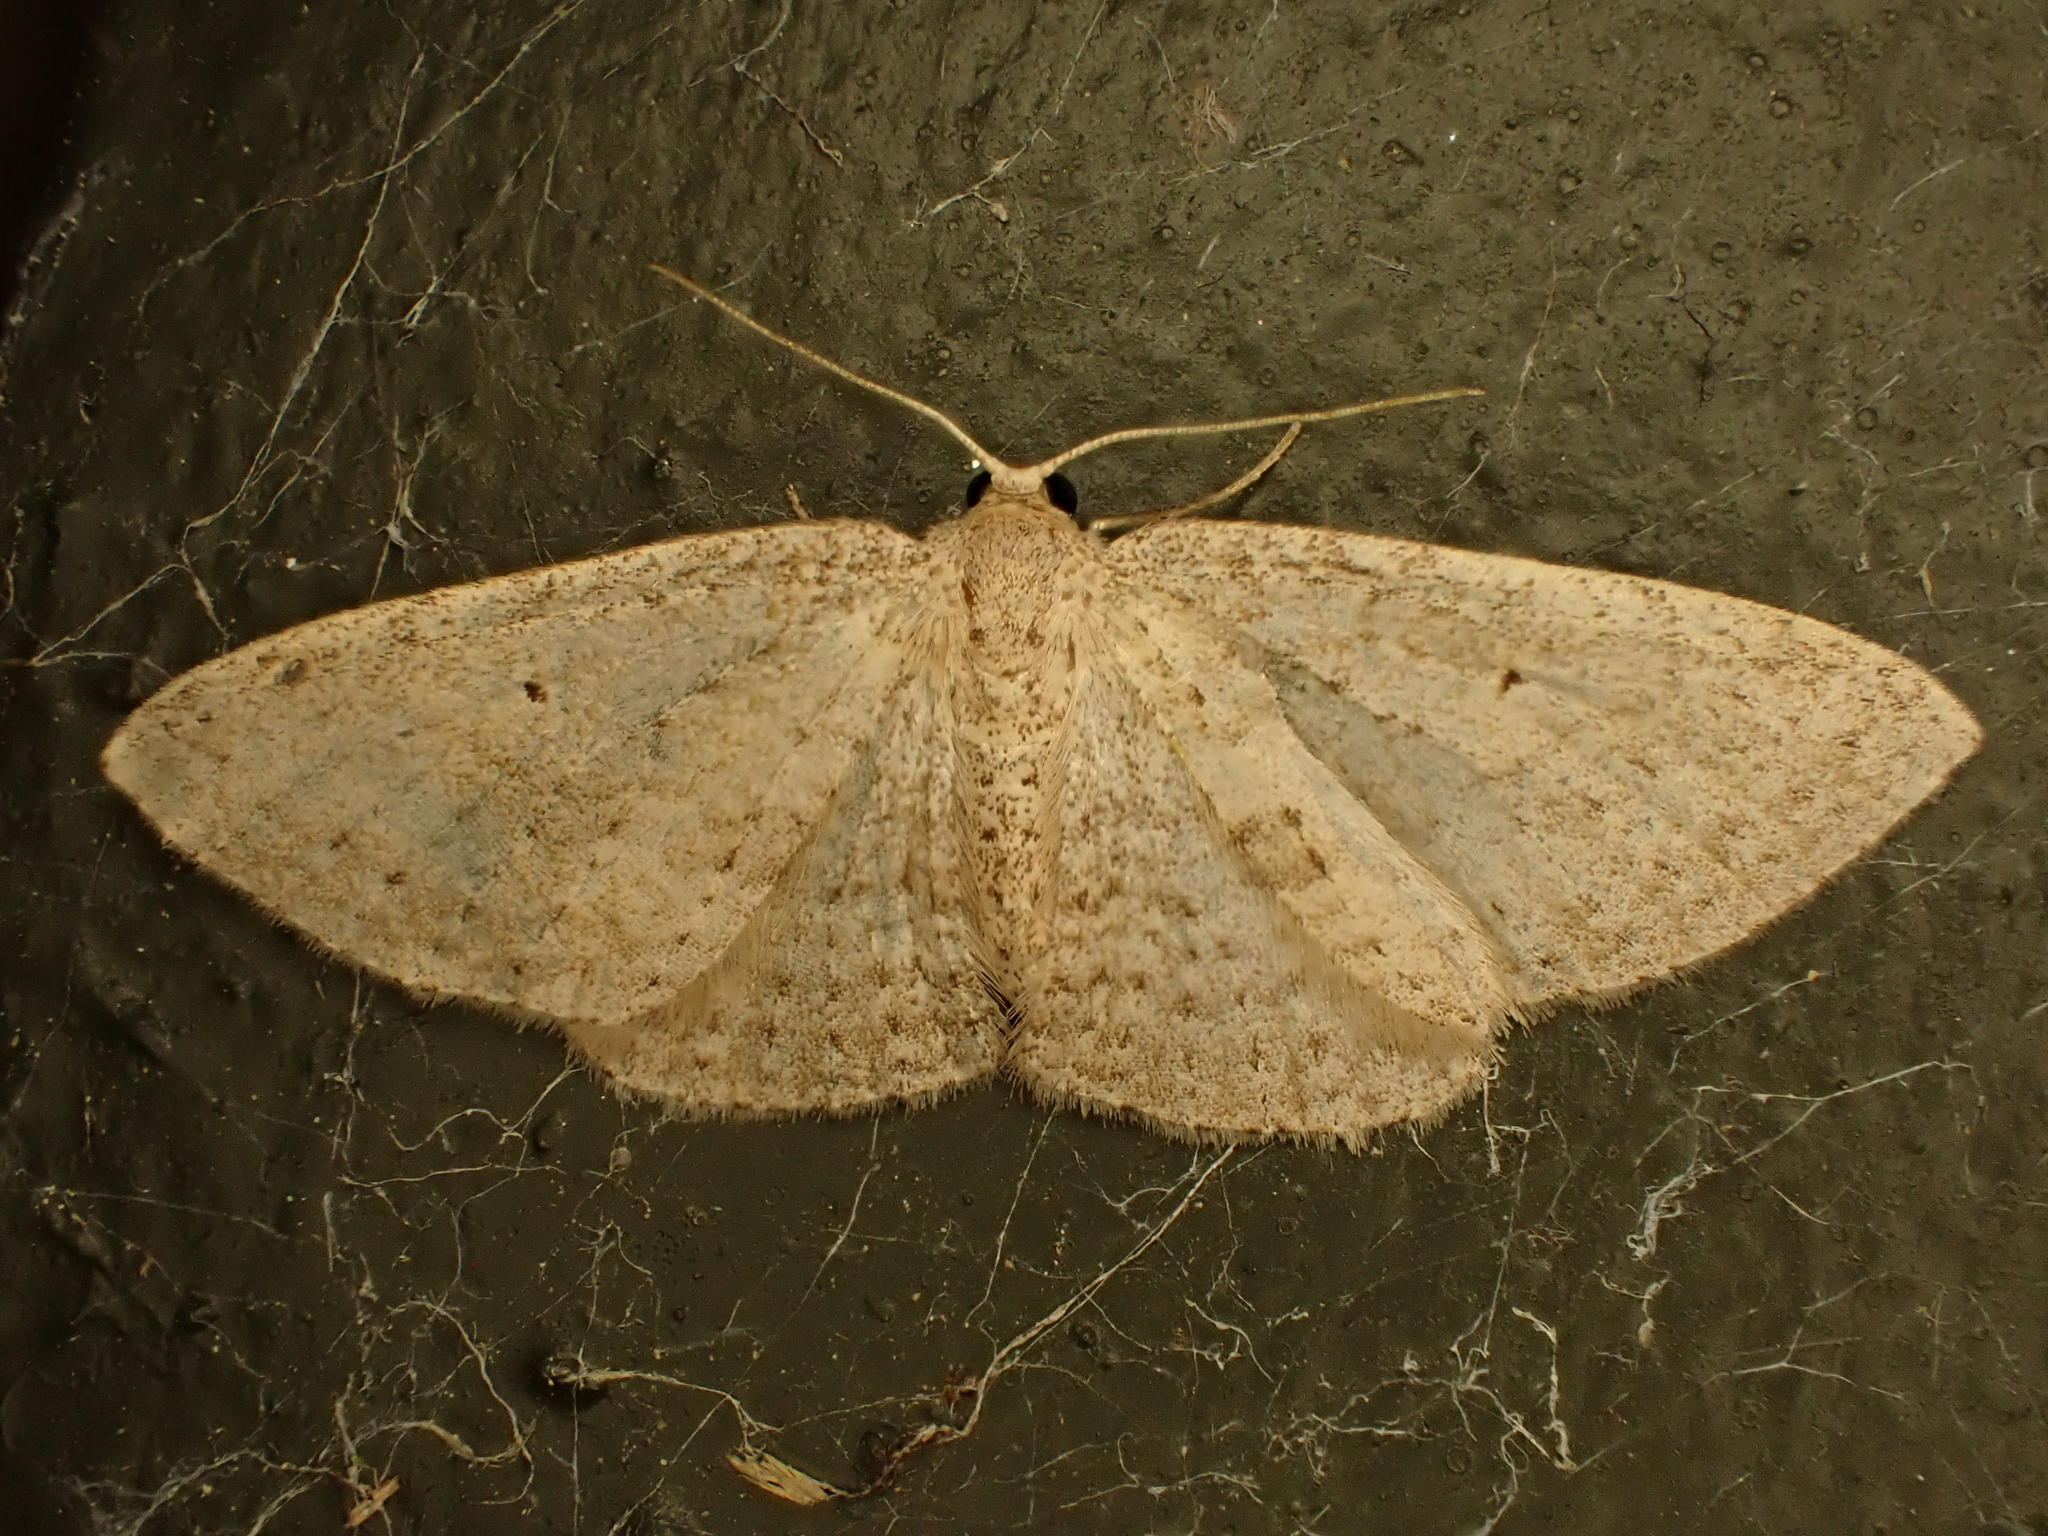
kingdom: Animalia
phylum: Arthropoda
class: Insecta
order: Lepidoptera
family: Geometridae
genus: Poecilasthena
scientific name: Poecilasthena schistaria
